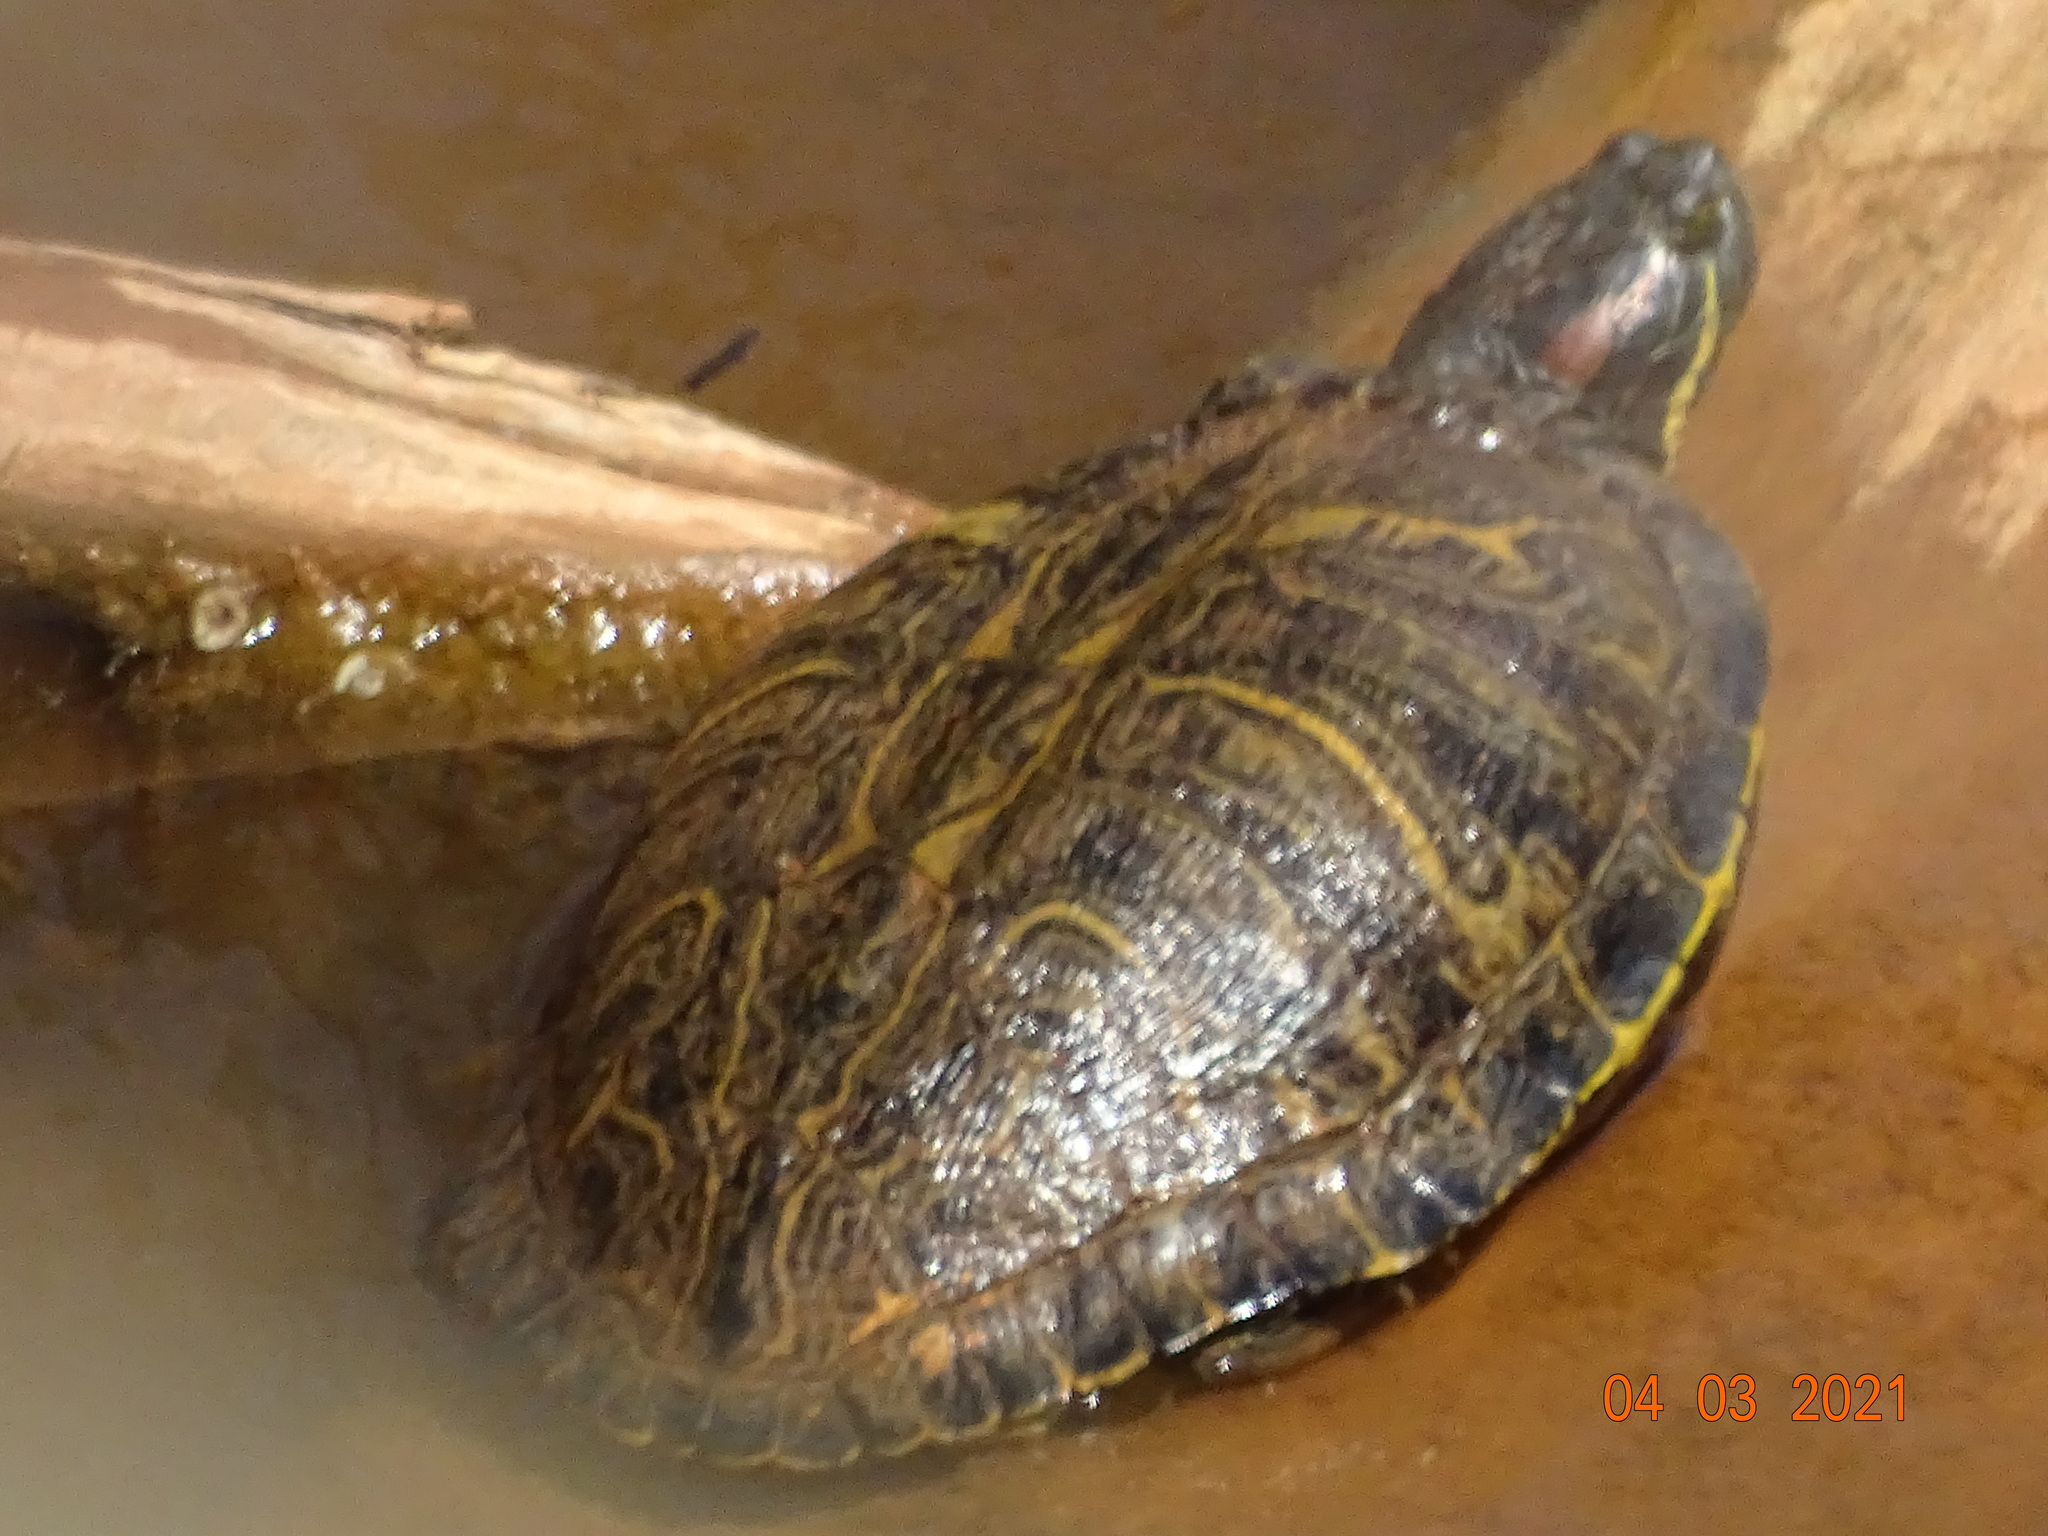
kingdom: Animalia
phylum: Chordata
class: Testudines
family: Emydidae
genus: Trachemys
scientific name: Trachemys scripta
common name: Slider
